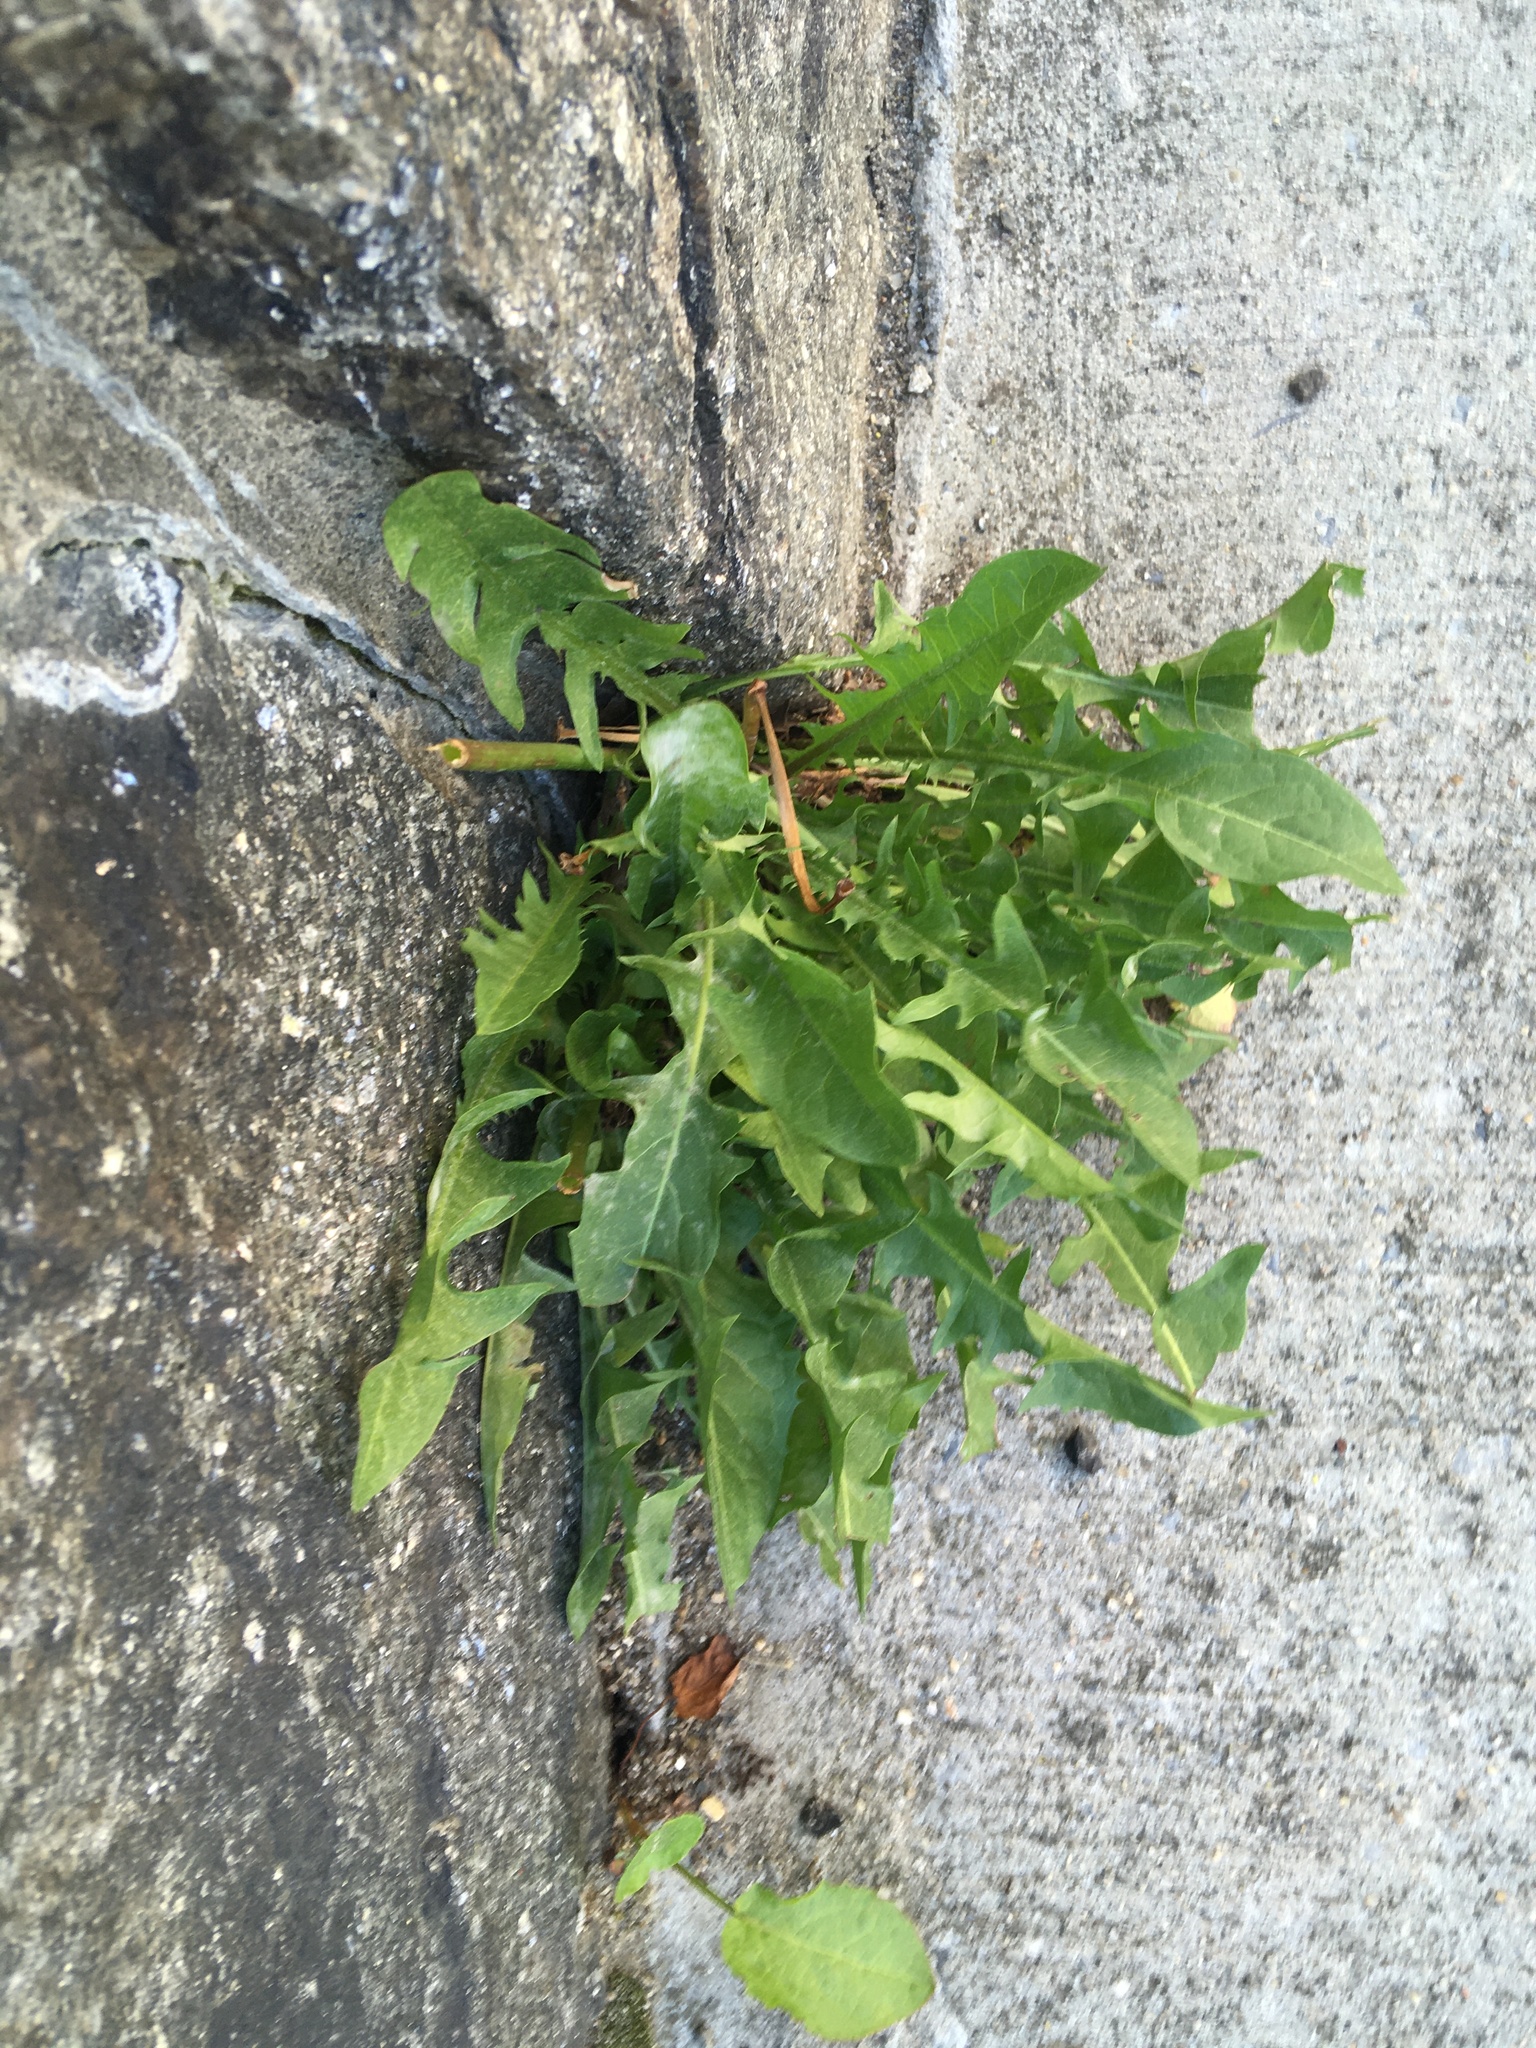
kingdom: Plantae
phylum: Tracheophyta
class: Magnoliopsida
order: Asterales
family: Asteraceae
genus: Taraxacum
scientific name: Taraxacum
